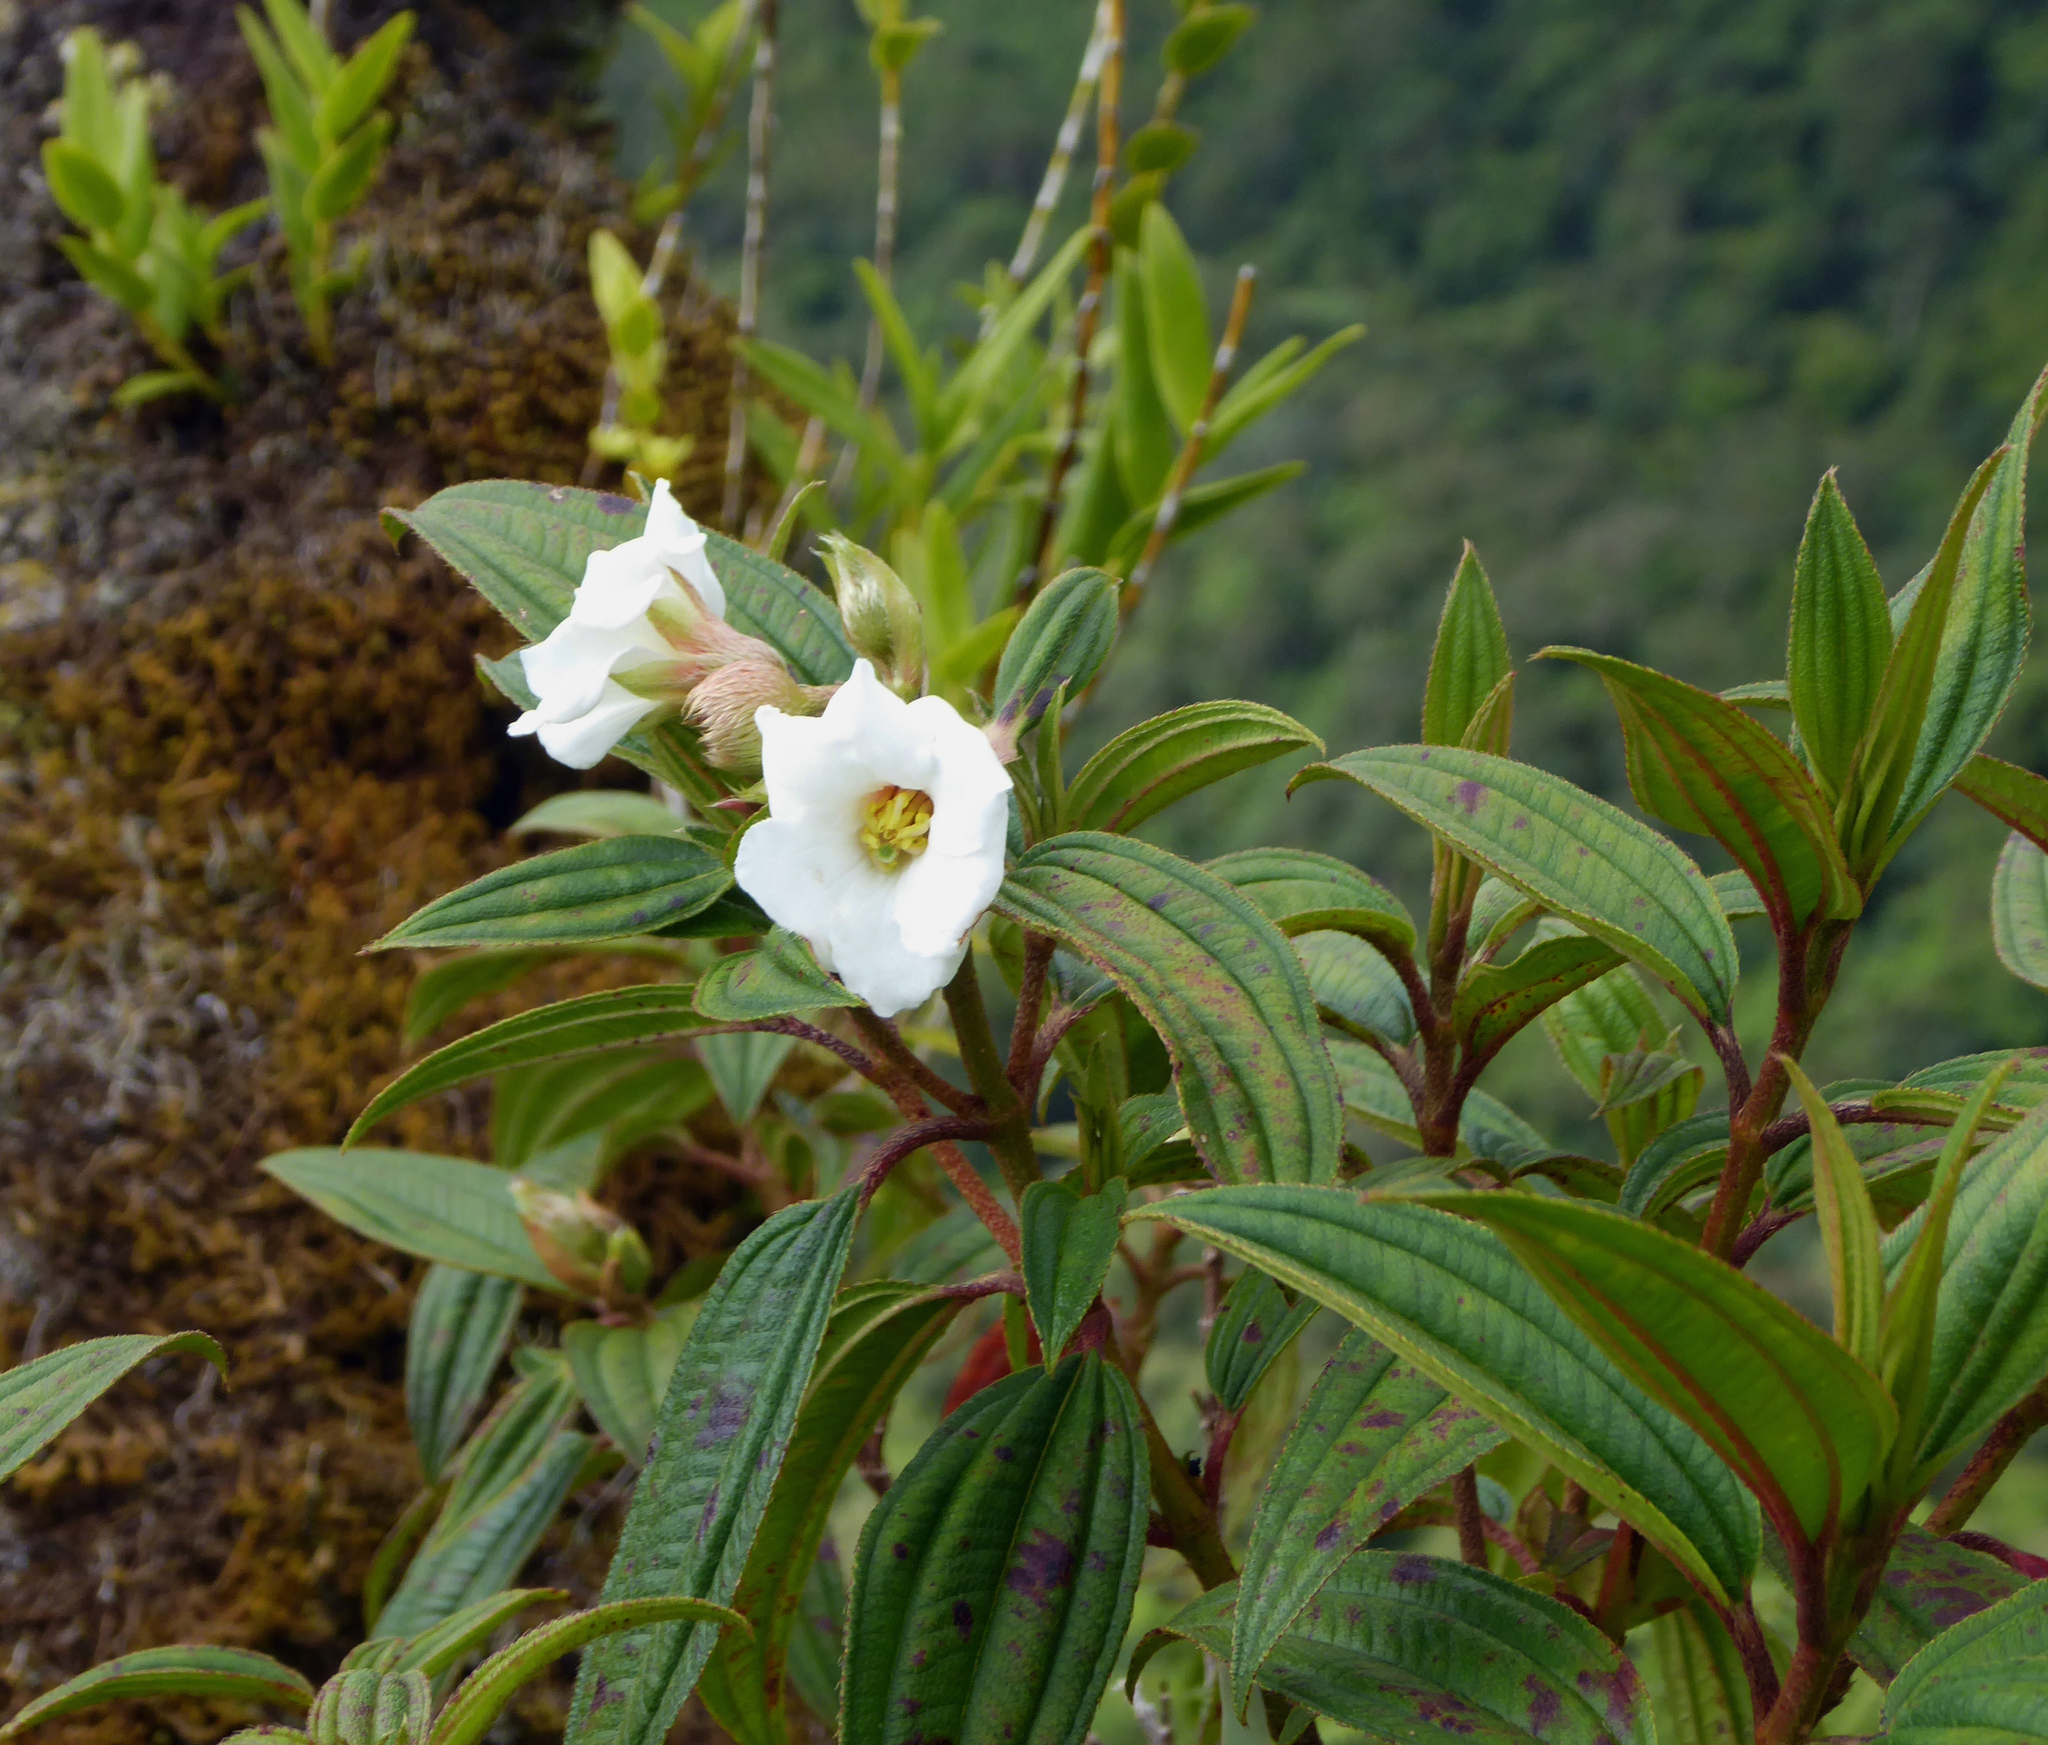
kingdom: Plantae
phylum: Tracheophyta
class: Magnoliopsida
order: Myrtales
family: Melastomataceae
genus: Melastoma
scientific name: Melastoma denticulatum
